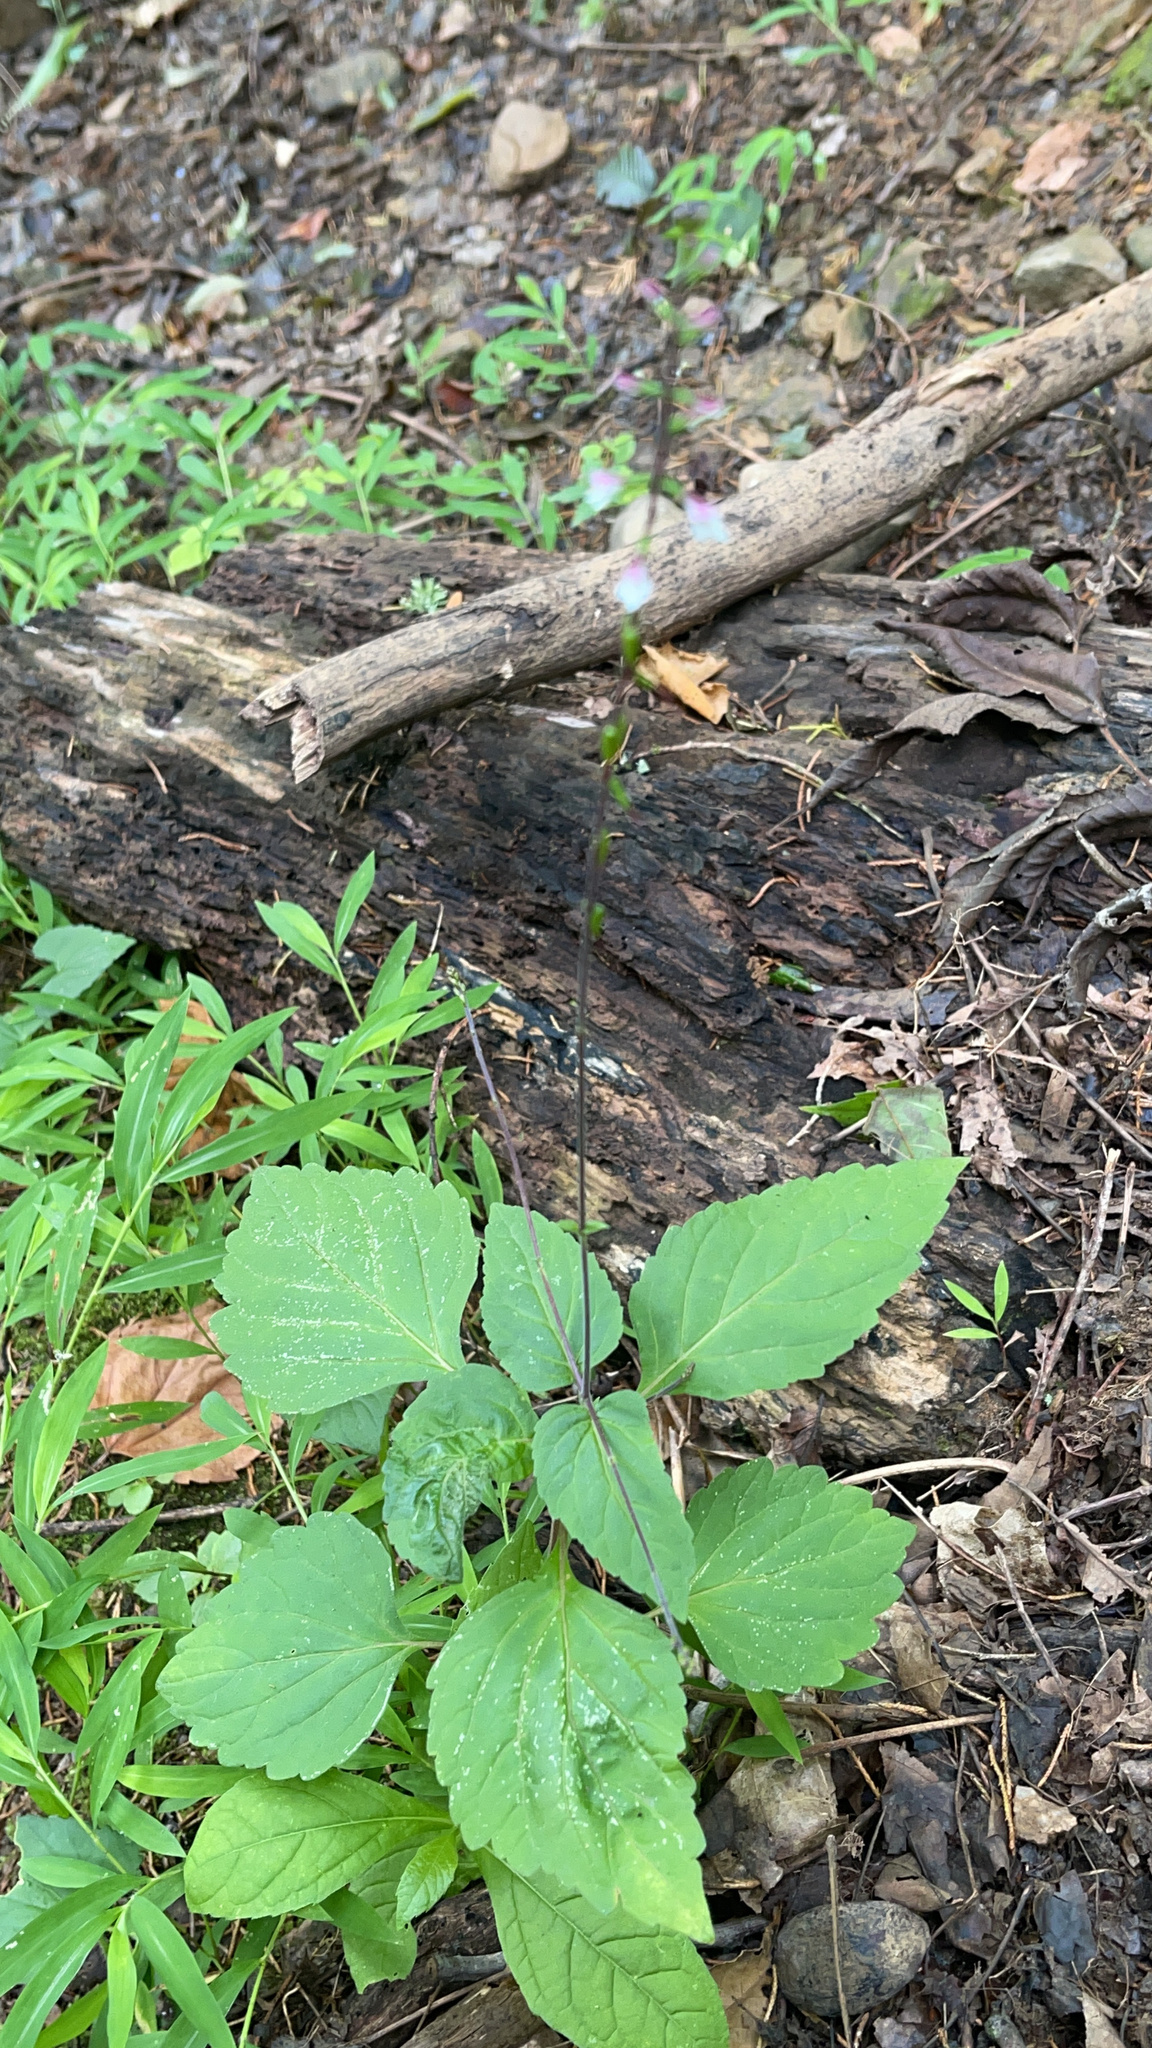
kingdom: Plantae
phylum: Tracheophyta
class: Magnoliopsida
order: Lamiales
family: Phrymaceae
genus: Phryma
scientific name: Phryma leptostachya
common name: American lopseed
